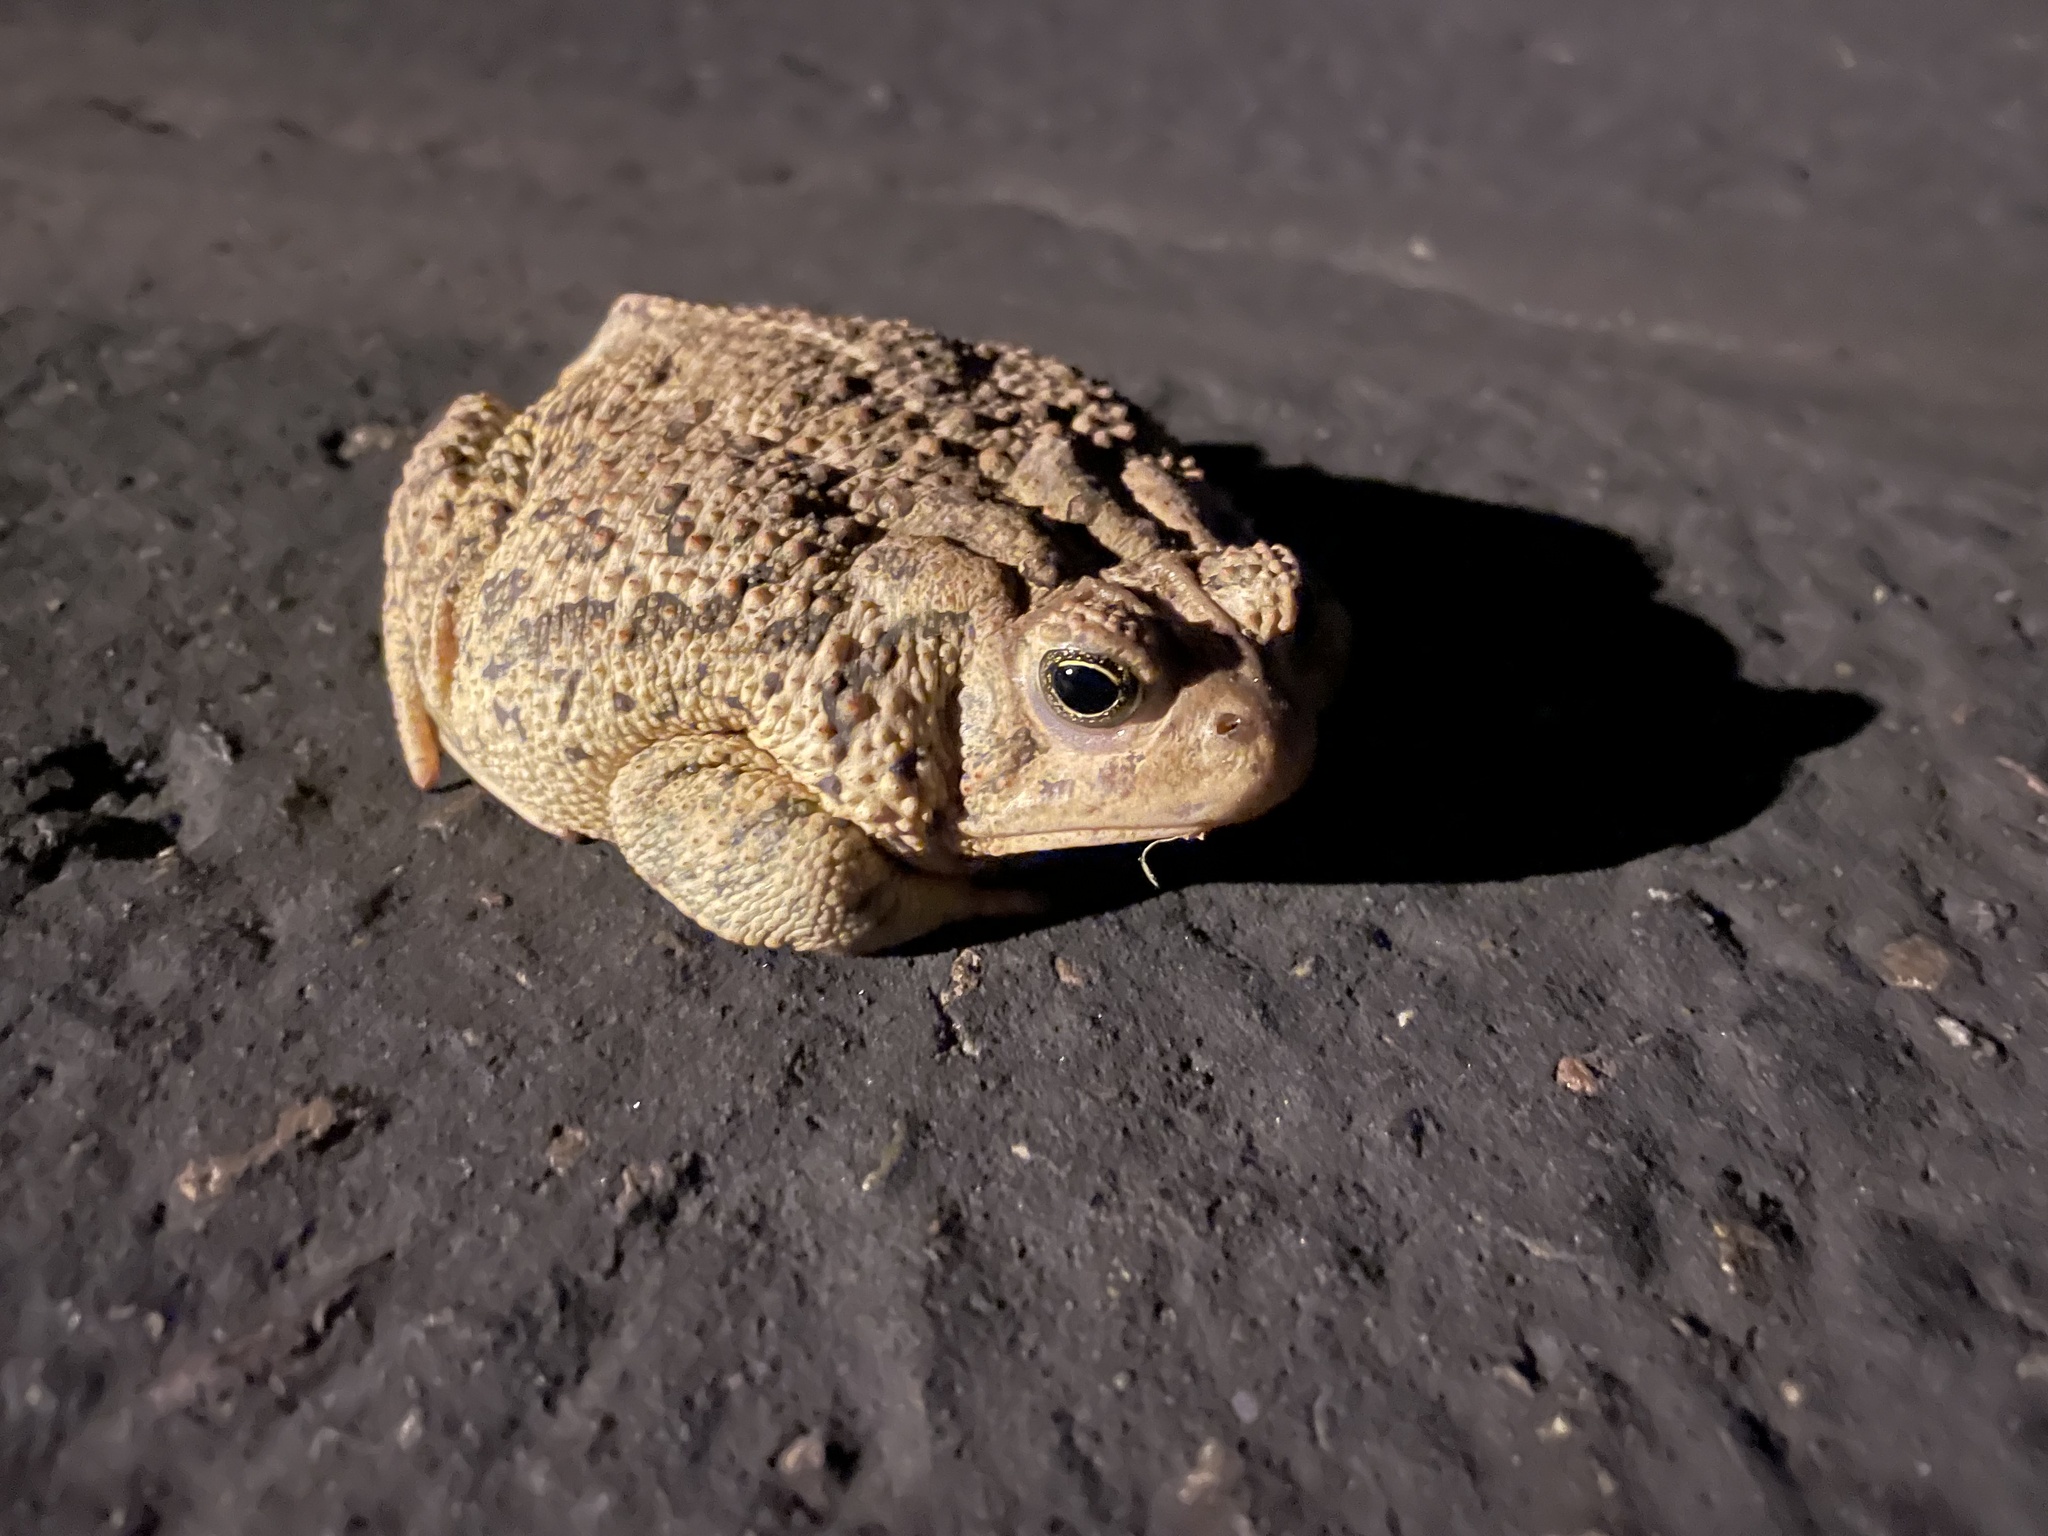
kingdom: Animalia
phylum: Chordata
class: Amphibia
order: Anura
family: Bufonidae
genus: Anaxyrus
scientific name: Anaxyrus woodhousii
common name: Woodhouse's toad
